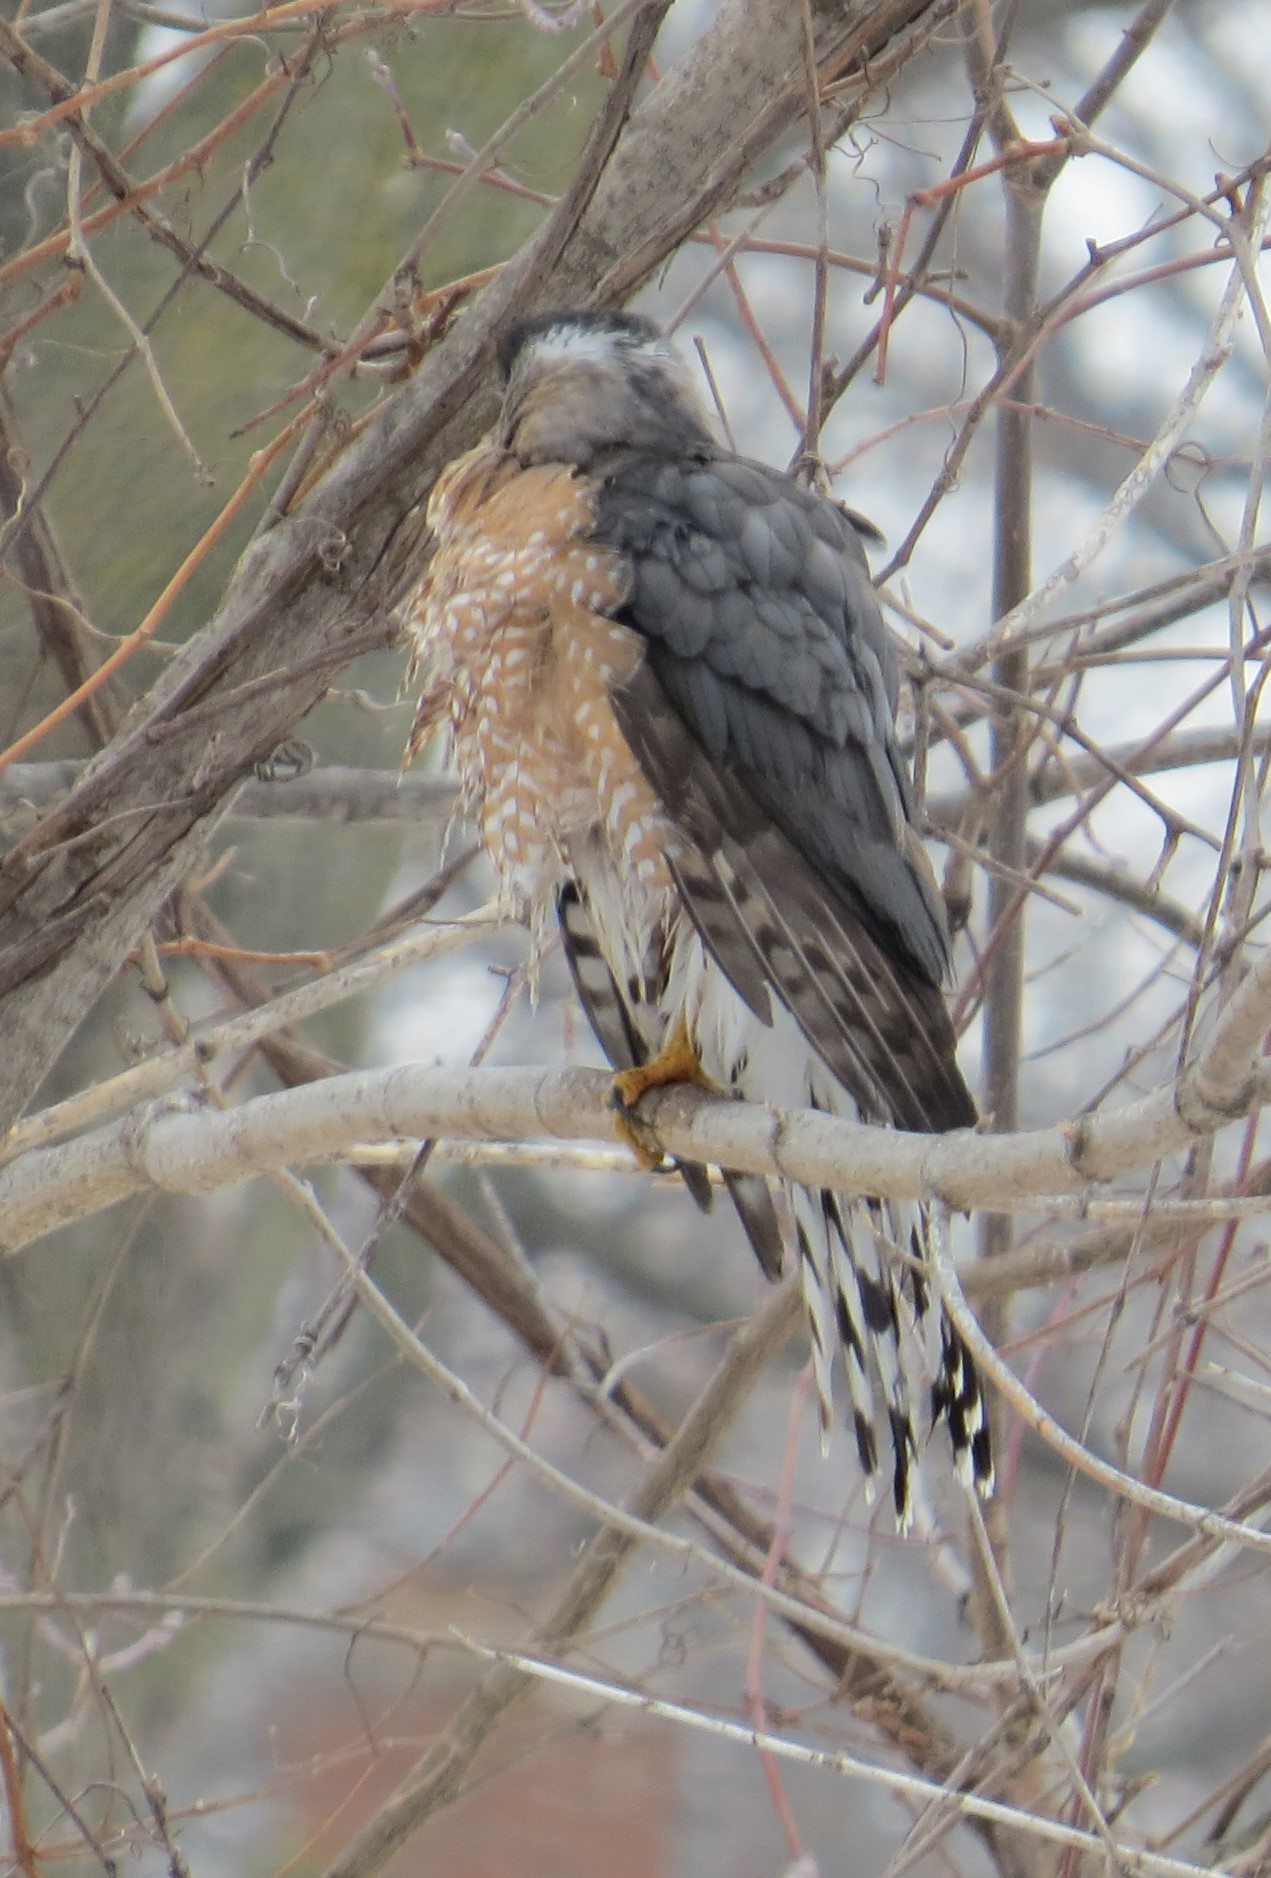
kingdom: Animalia
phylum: Chordata
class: Aves
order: Accipitriformes
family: Accipitridae
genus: Accipiter
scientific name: Accipiter cooperii
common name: Cooper's hawk
